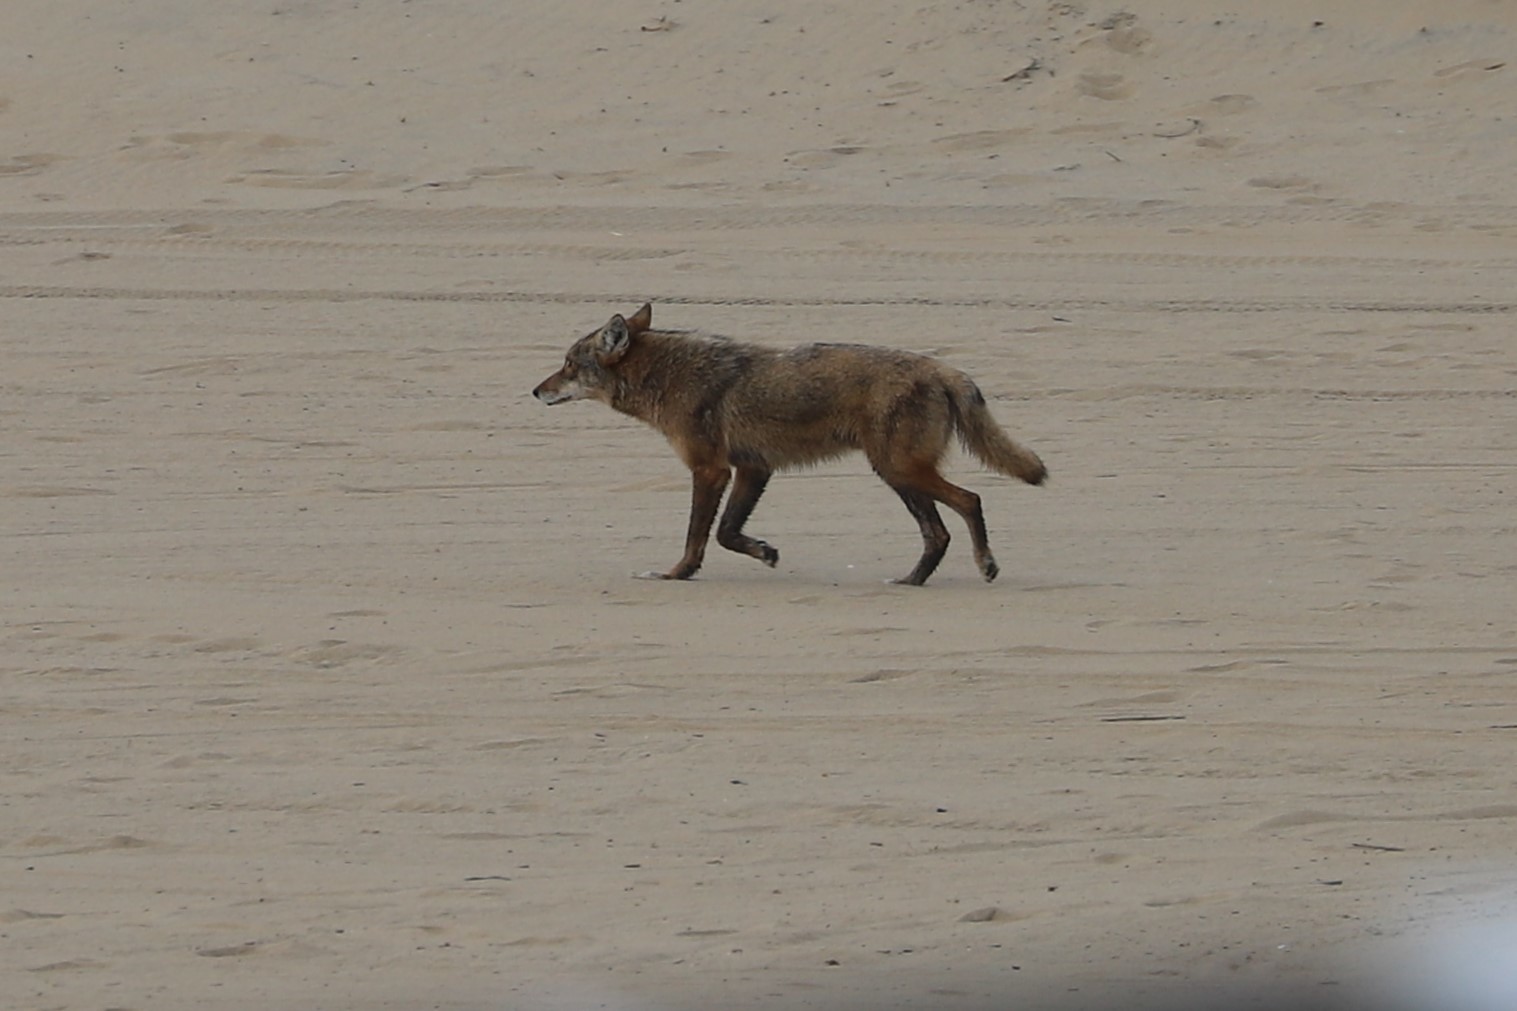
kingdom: Animalia
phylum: Chordata
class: Mammalia
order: Carnivora
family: Canidae
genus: Canis
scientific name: Canis latrans
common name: Coyote
